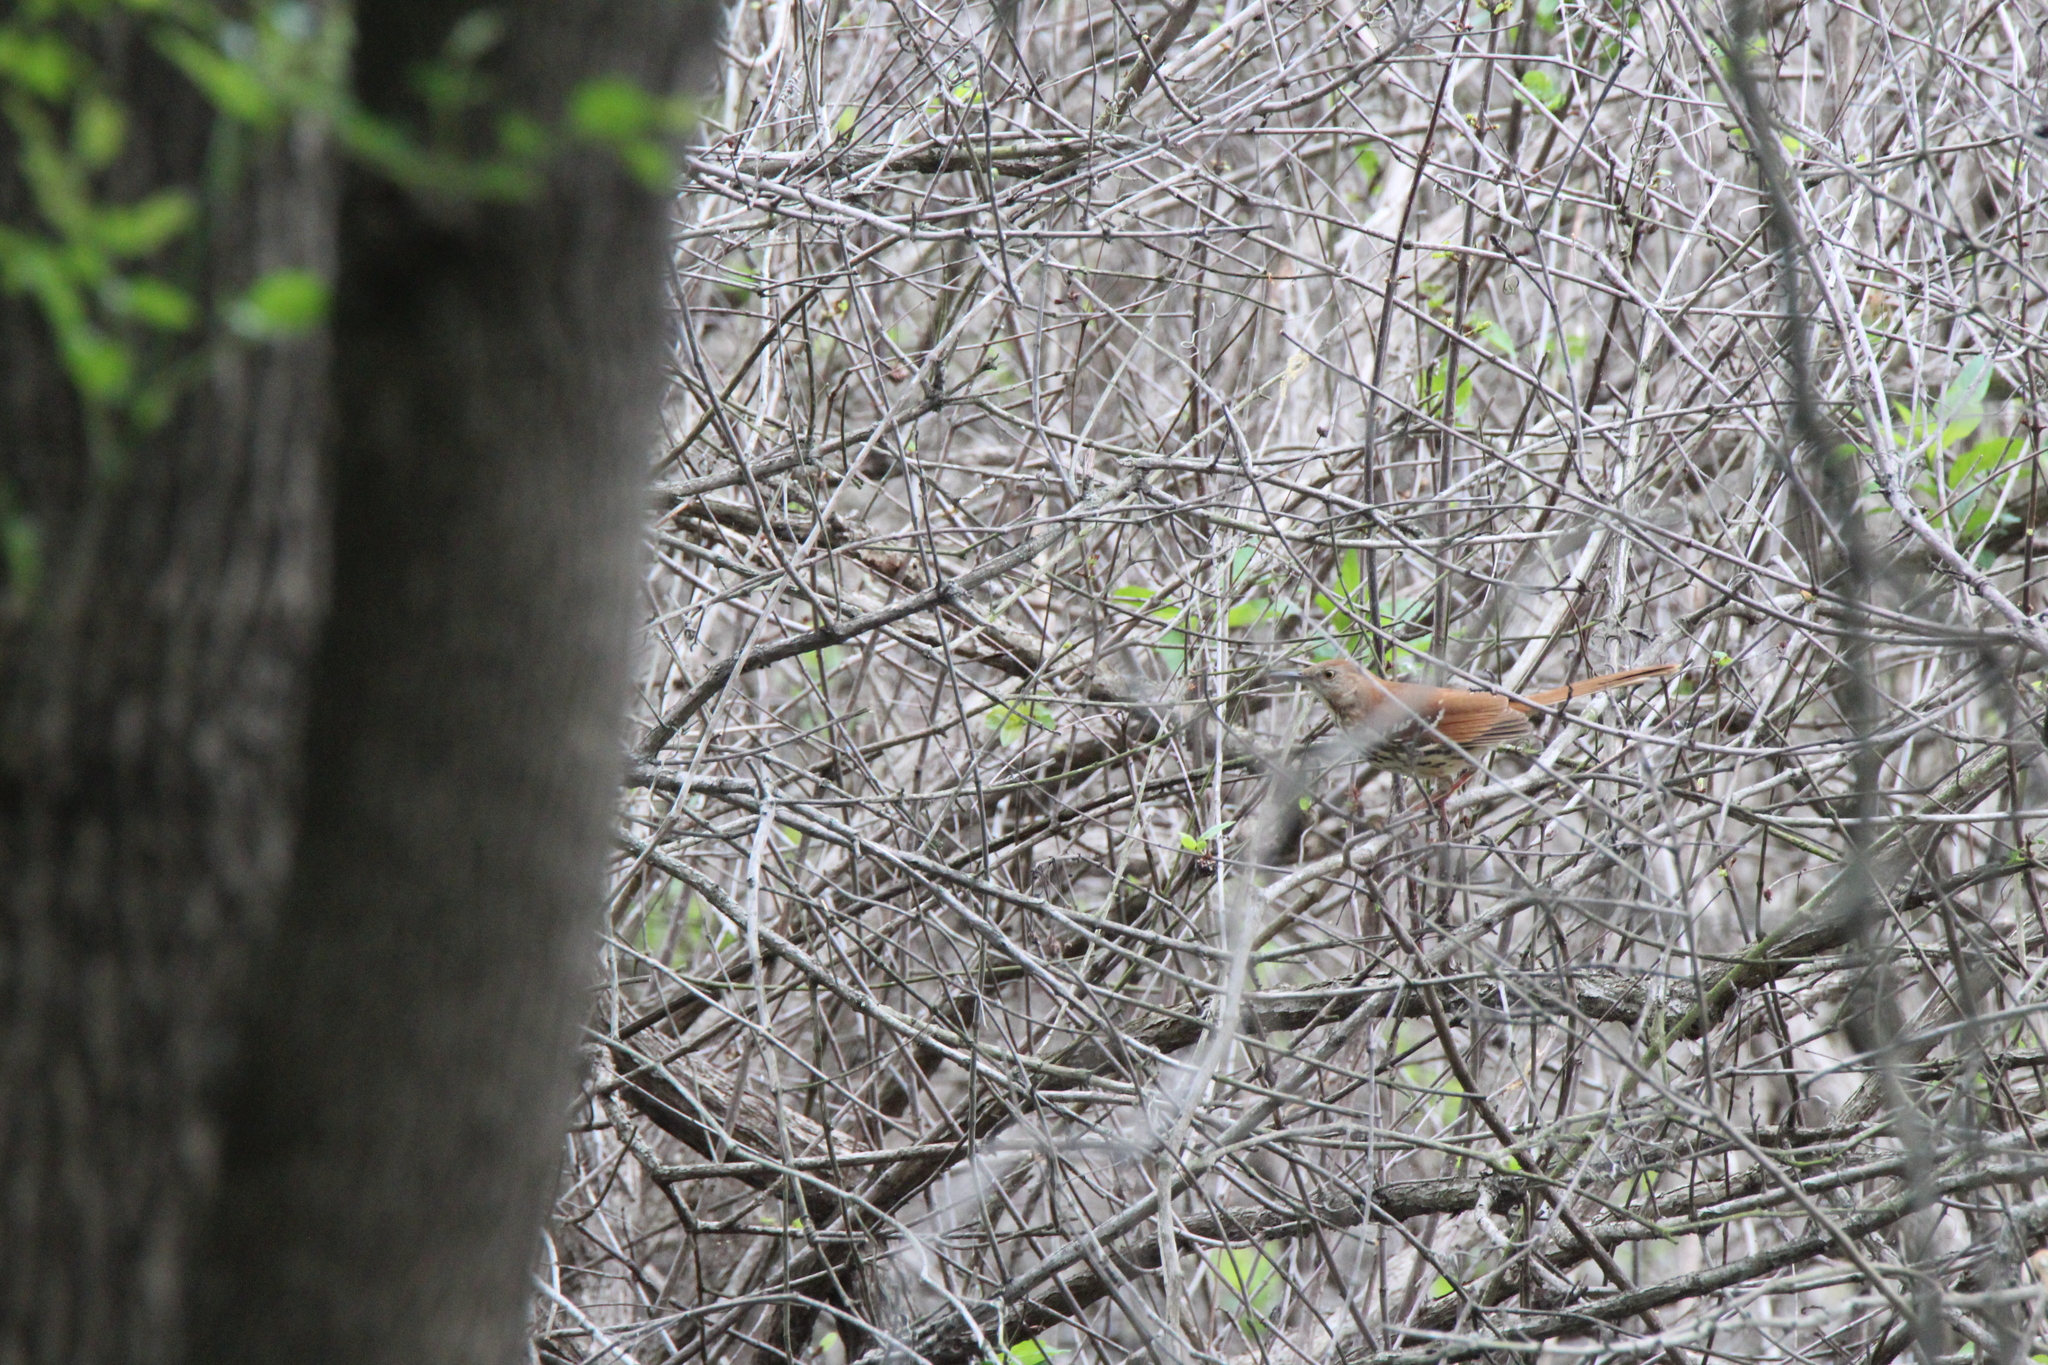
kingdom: Animalia
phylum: Chordata
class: Aves
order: Passeriformes
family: Mimidae
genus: Toxostoma
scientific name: Toxostoma rufum
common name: Brown thrasher
